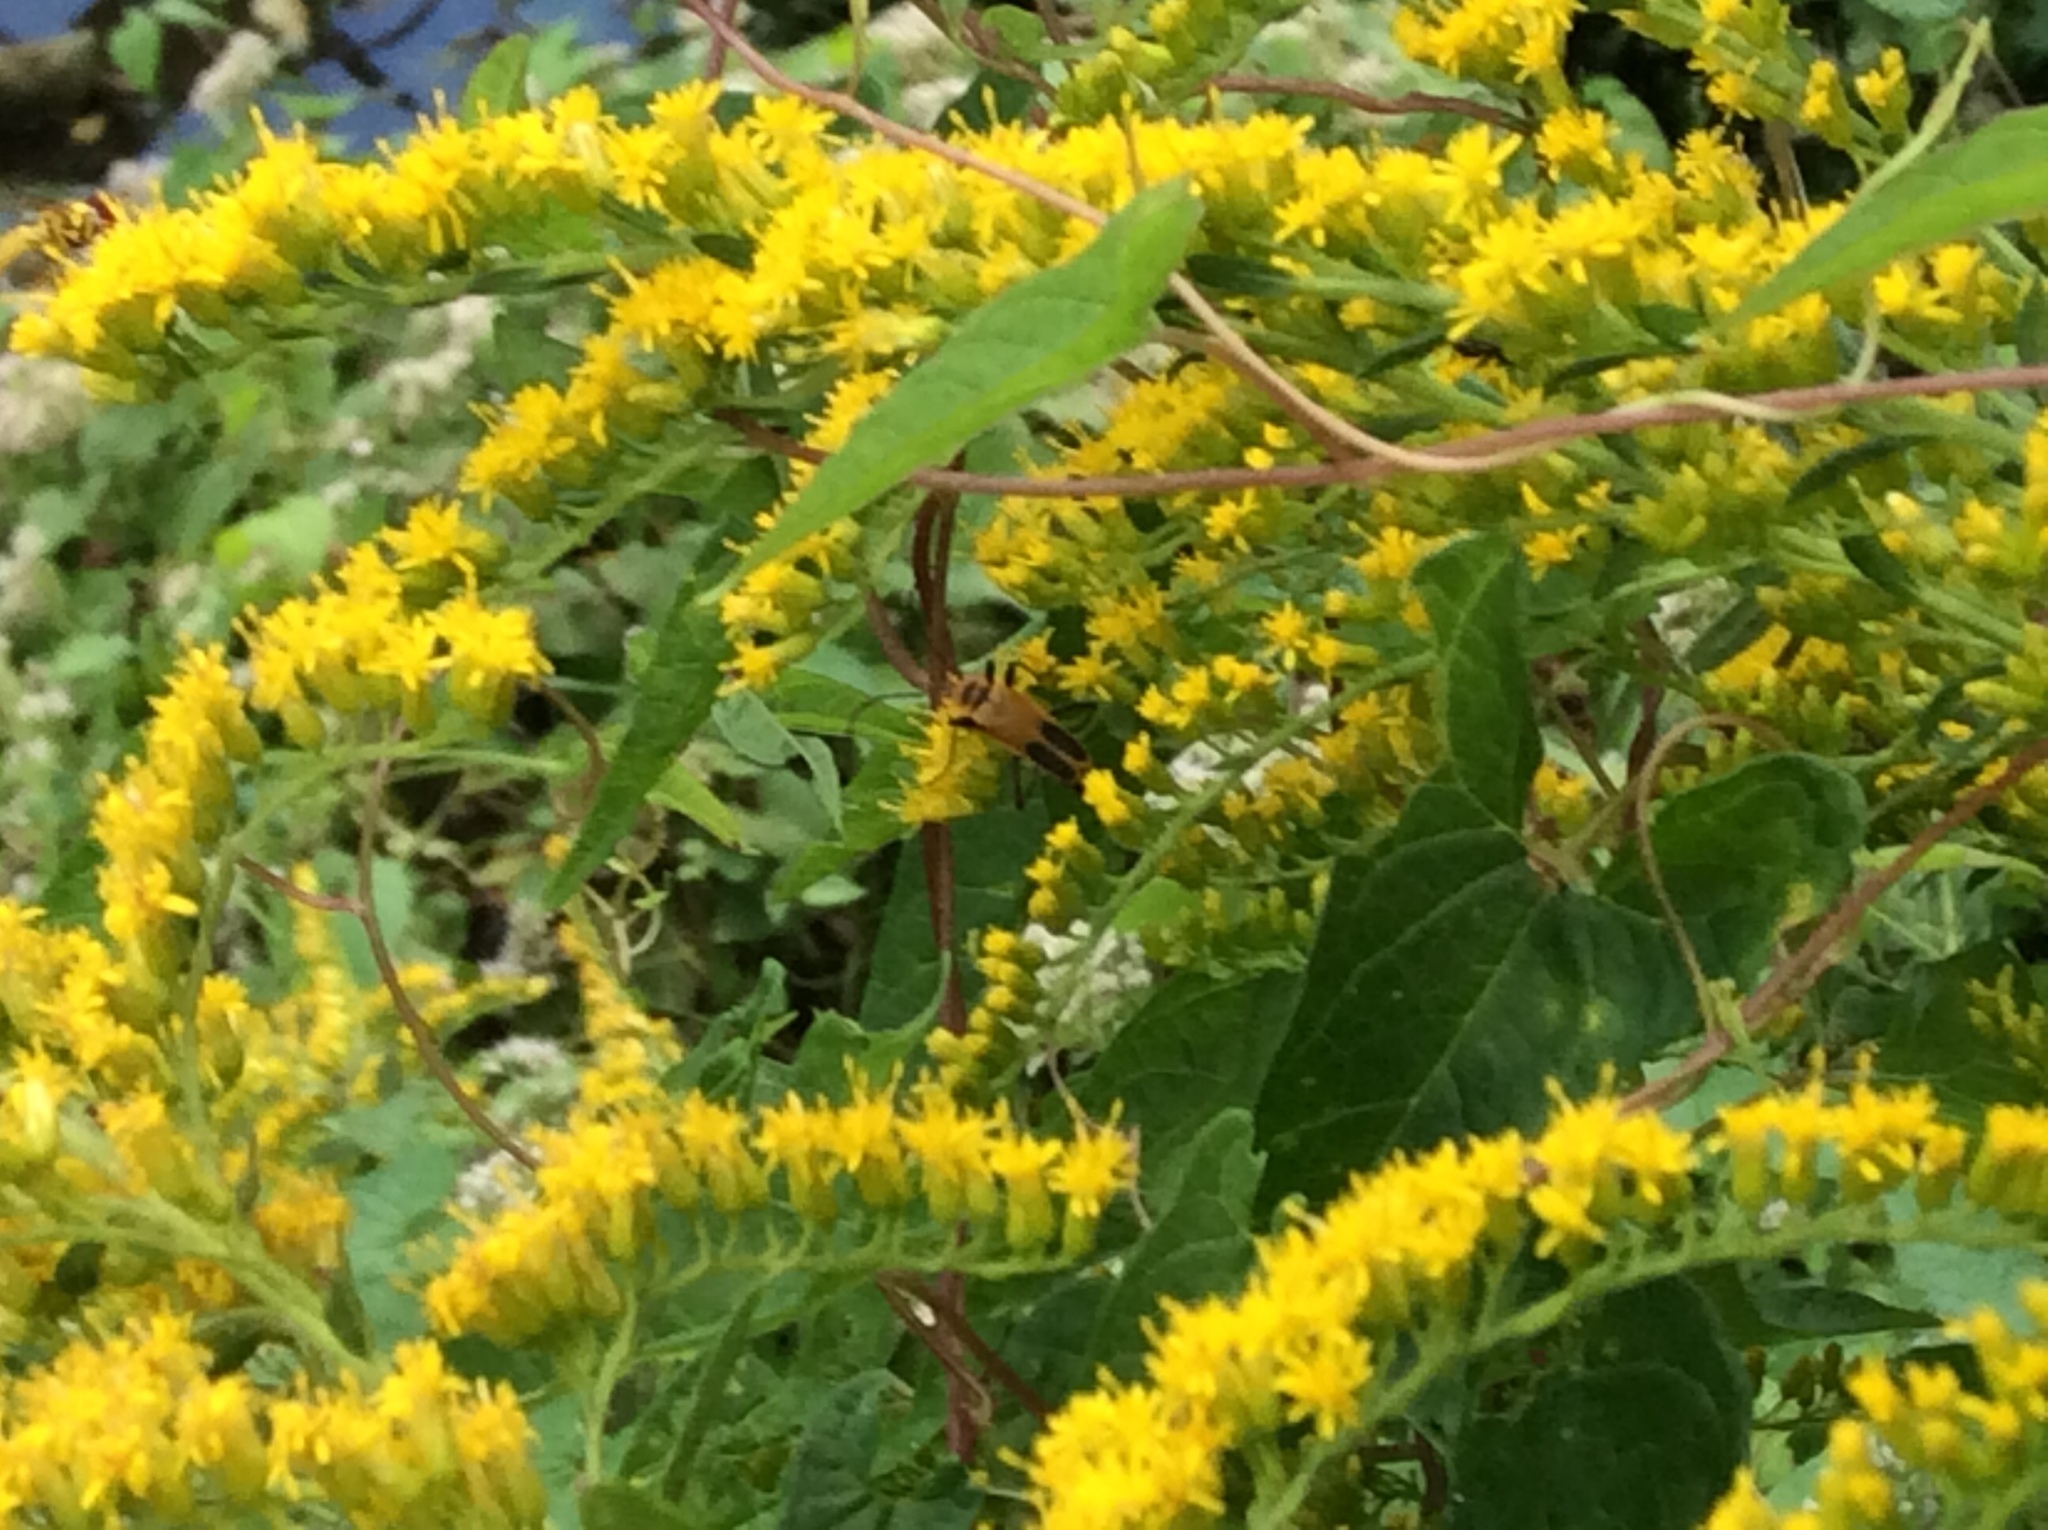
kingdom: Animalia
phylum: Arthropoda
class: Insecta
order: Coleoptera
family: Cantharidae
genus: Chauliognathus
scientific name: Chauliognathus pensylvanicus
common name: Goldenrod soldier beetle
